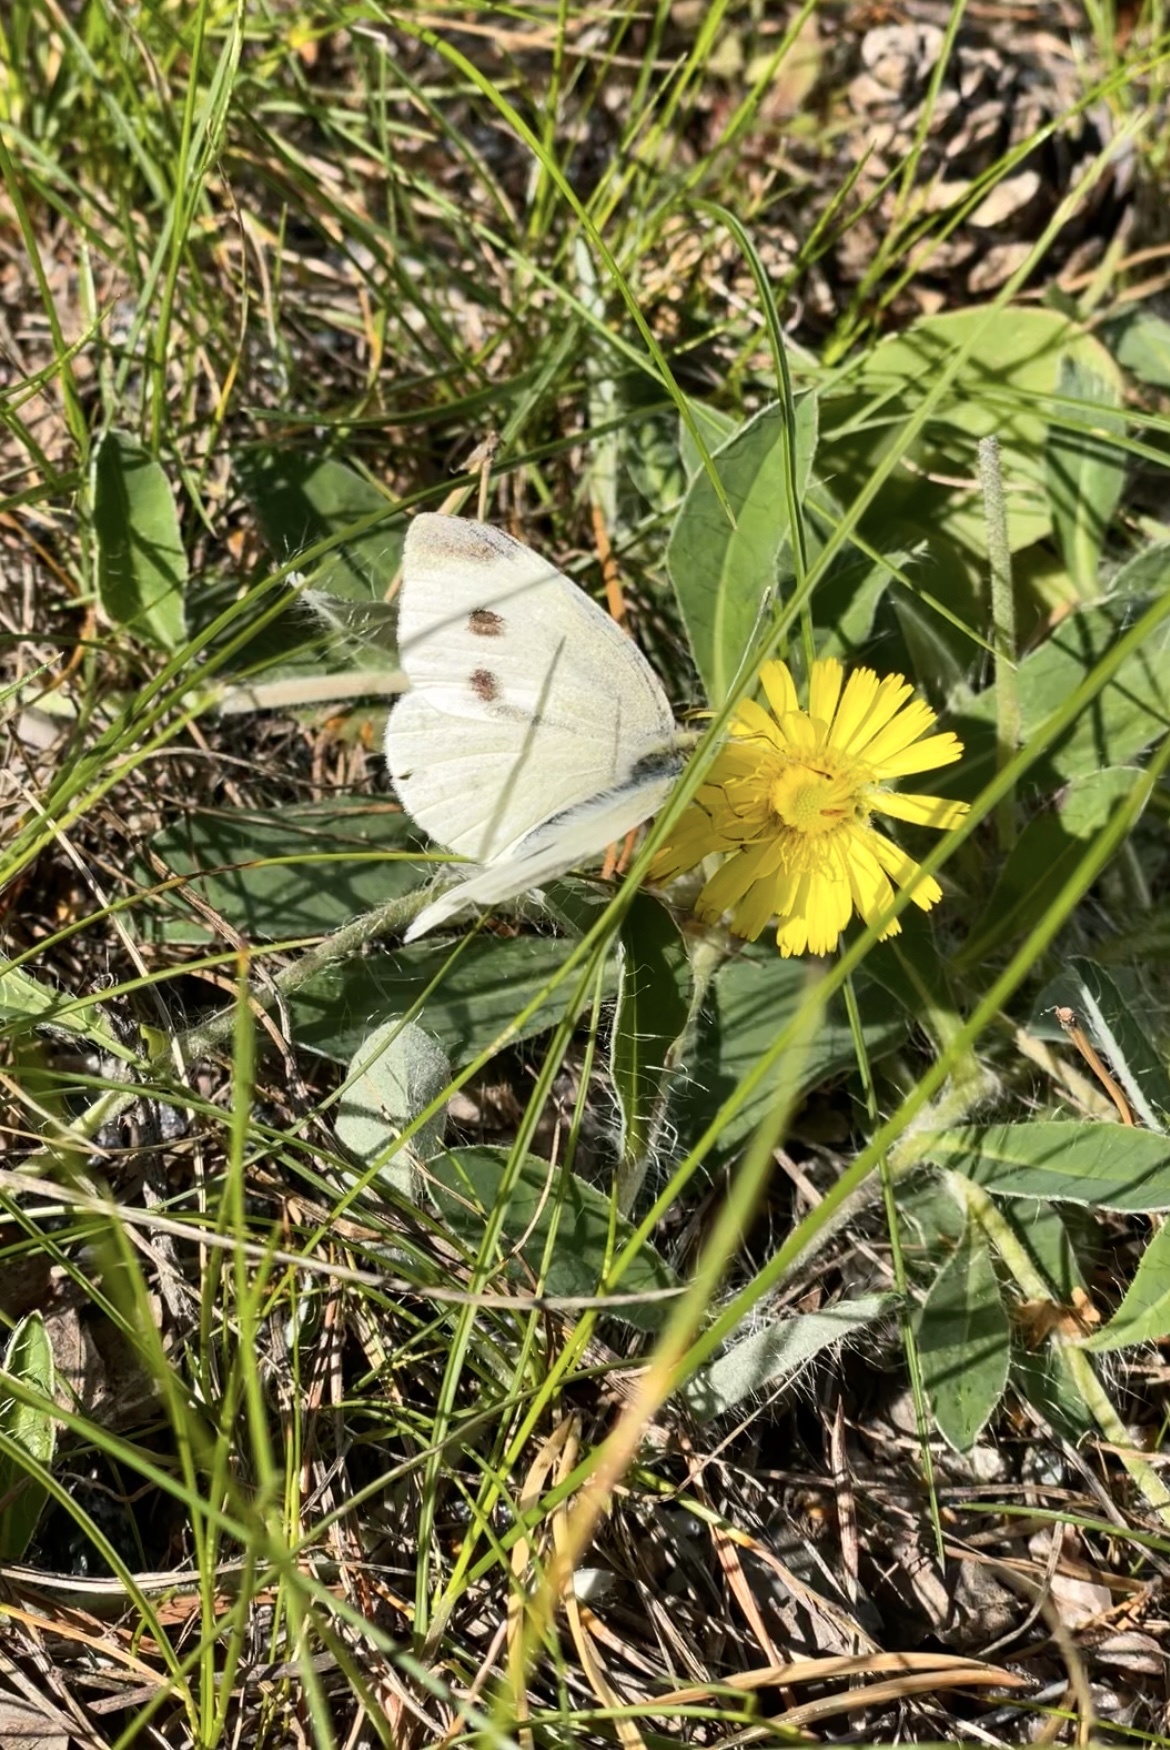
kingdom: Animalia
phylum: Arthropoda
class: Insecta
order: Lepidoptera
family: Pieridae
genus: Pieris
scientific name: Pieris rapae
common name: Small white
